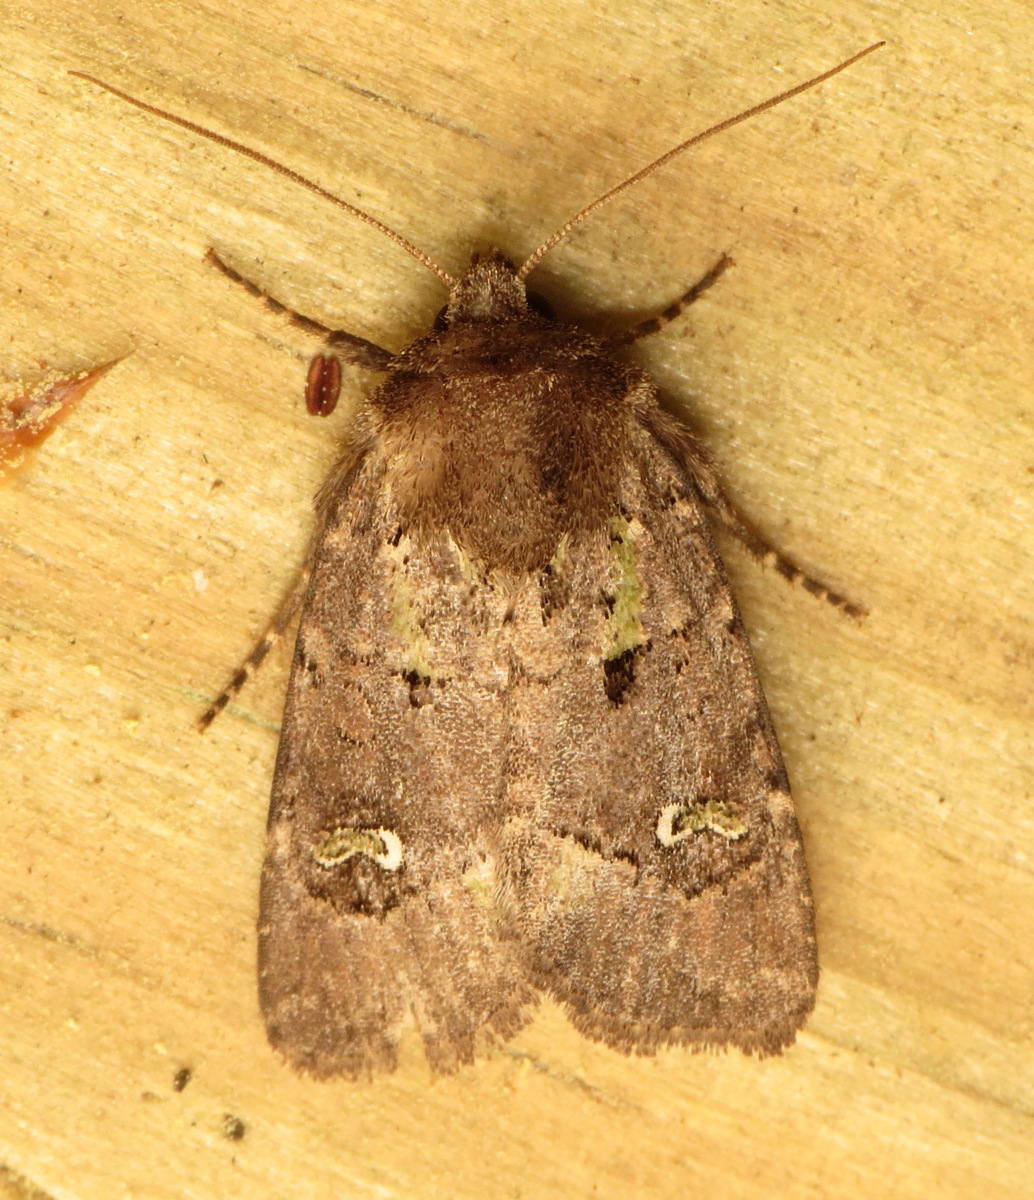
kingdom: Animalia
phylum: Arthropoda
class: Insecta
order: Lepidoptera
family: Noctuidae
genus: Lacinipolia
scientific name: Lacinipolia renigera
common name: Kidney-spotted minor
